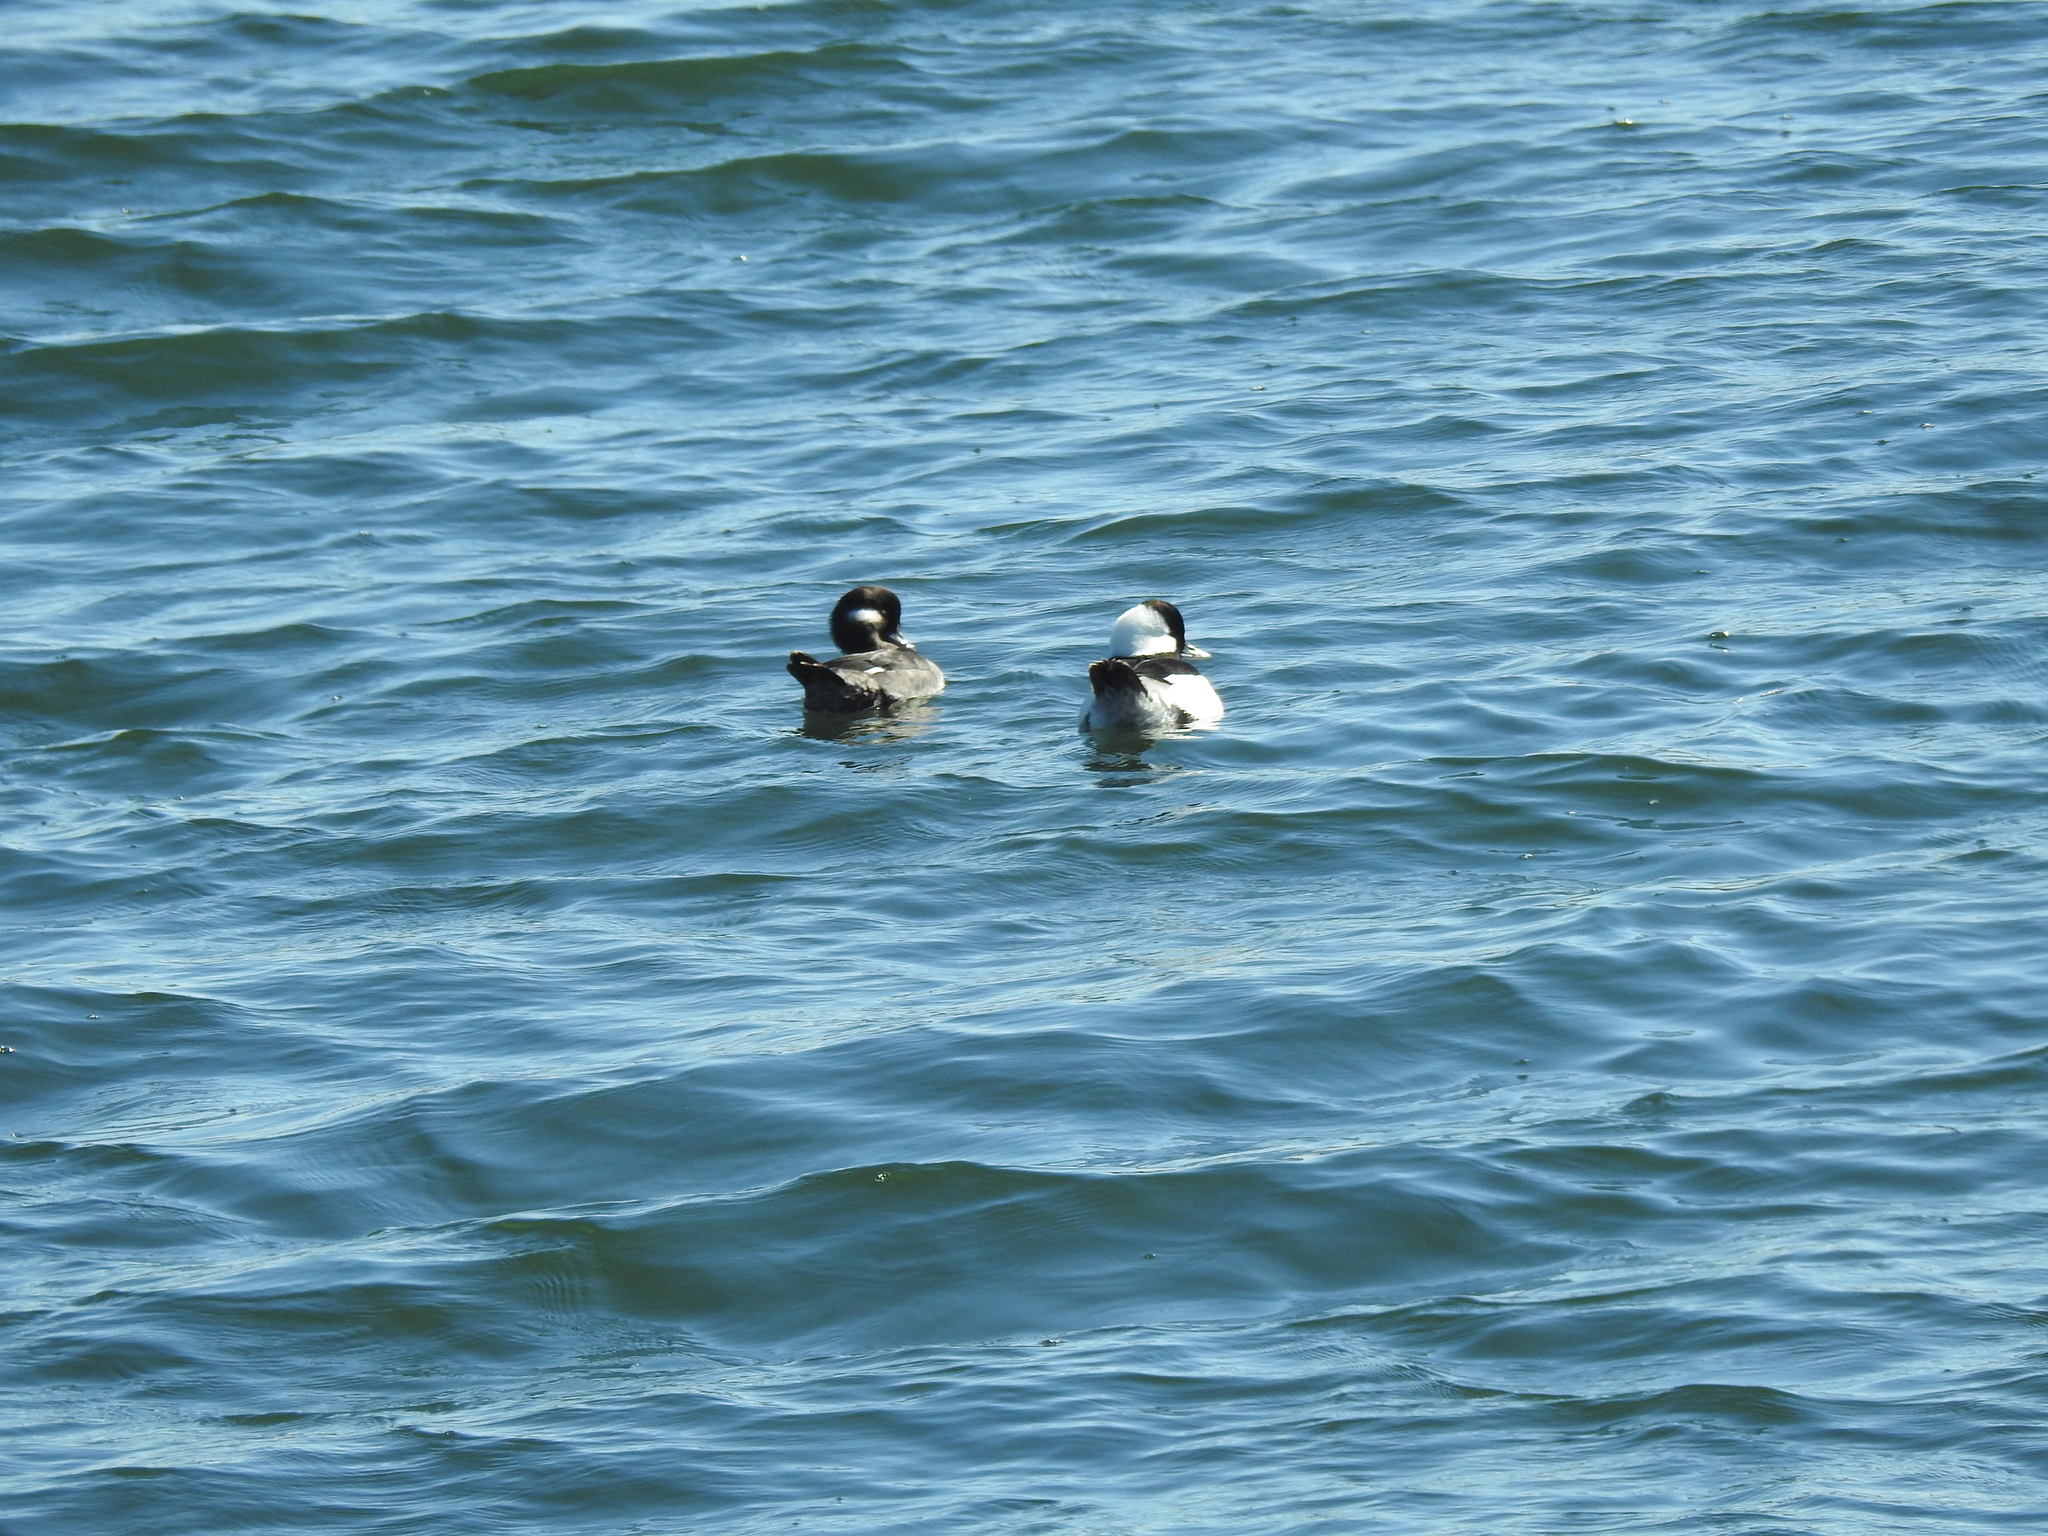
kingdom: Animalia
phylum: Chordata
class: Aves
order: Anseriformes
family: Anatidae
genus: Bucephala
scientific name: Bucephala albeola
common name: Bufflehead
